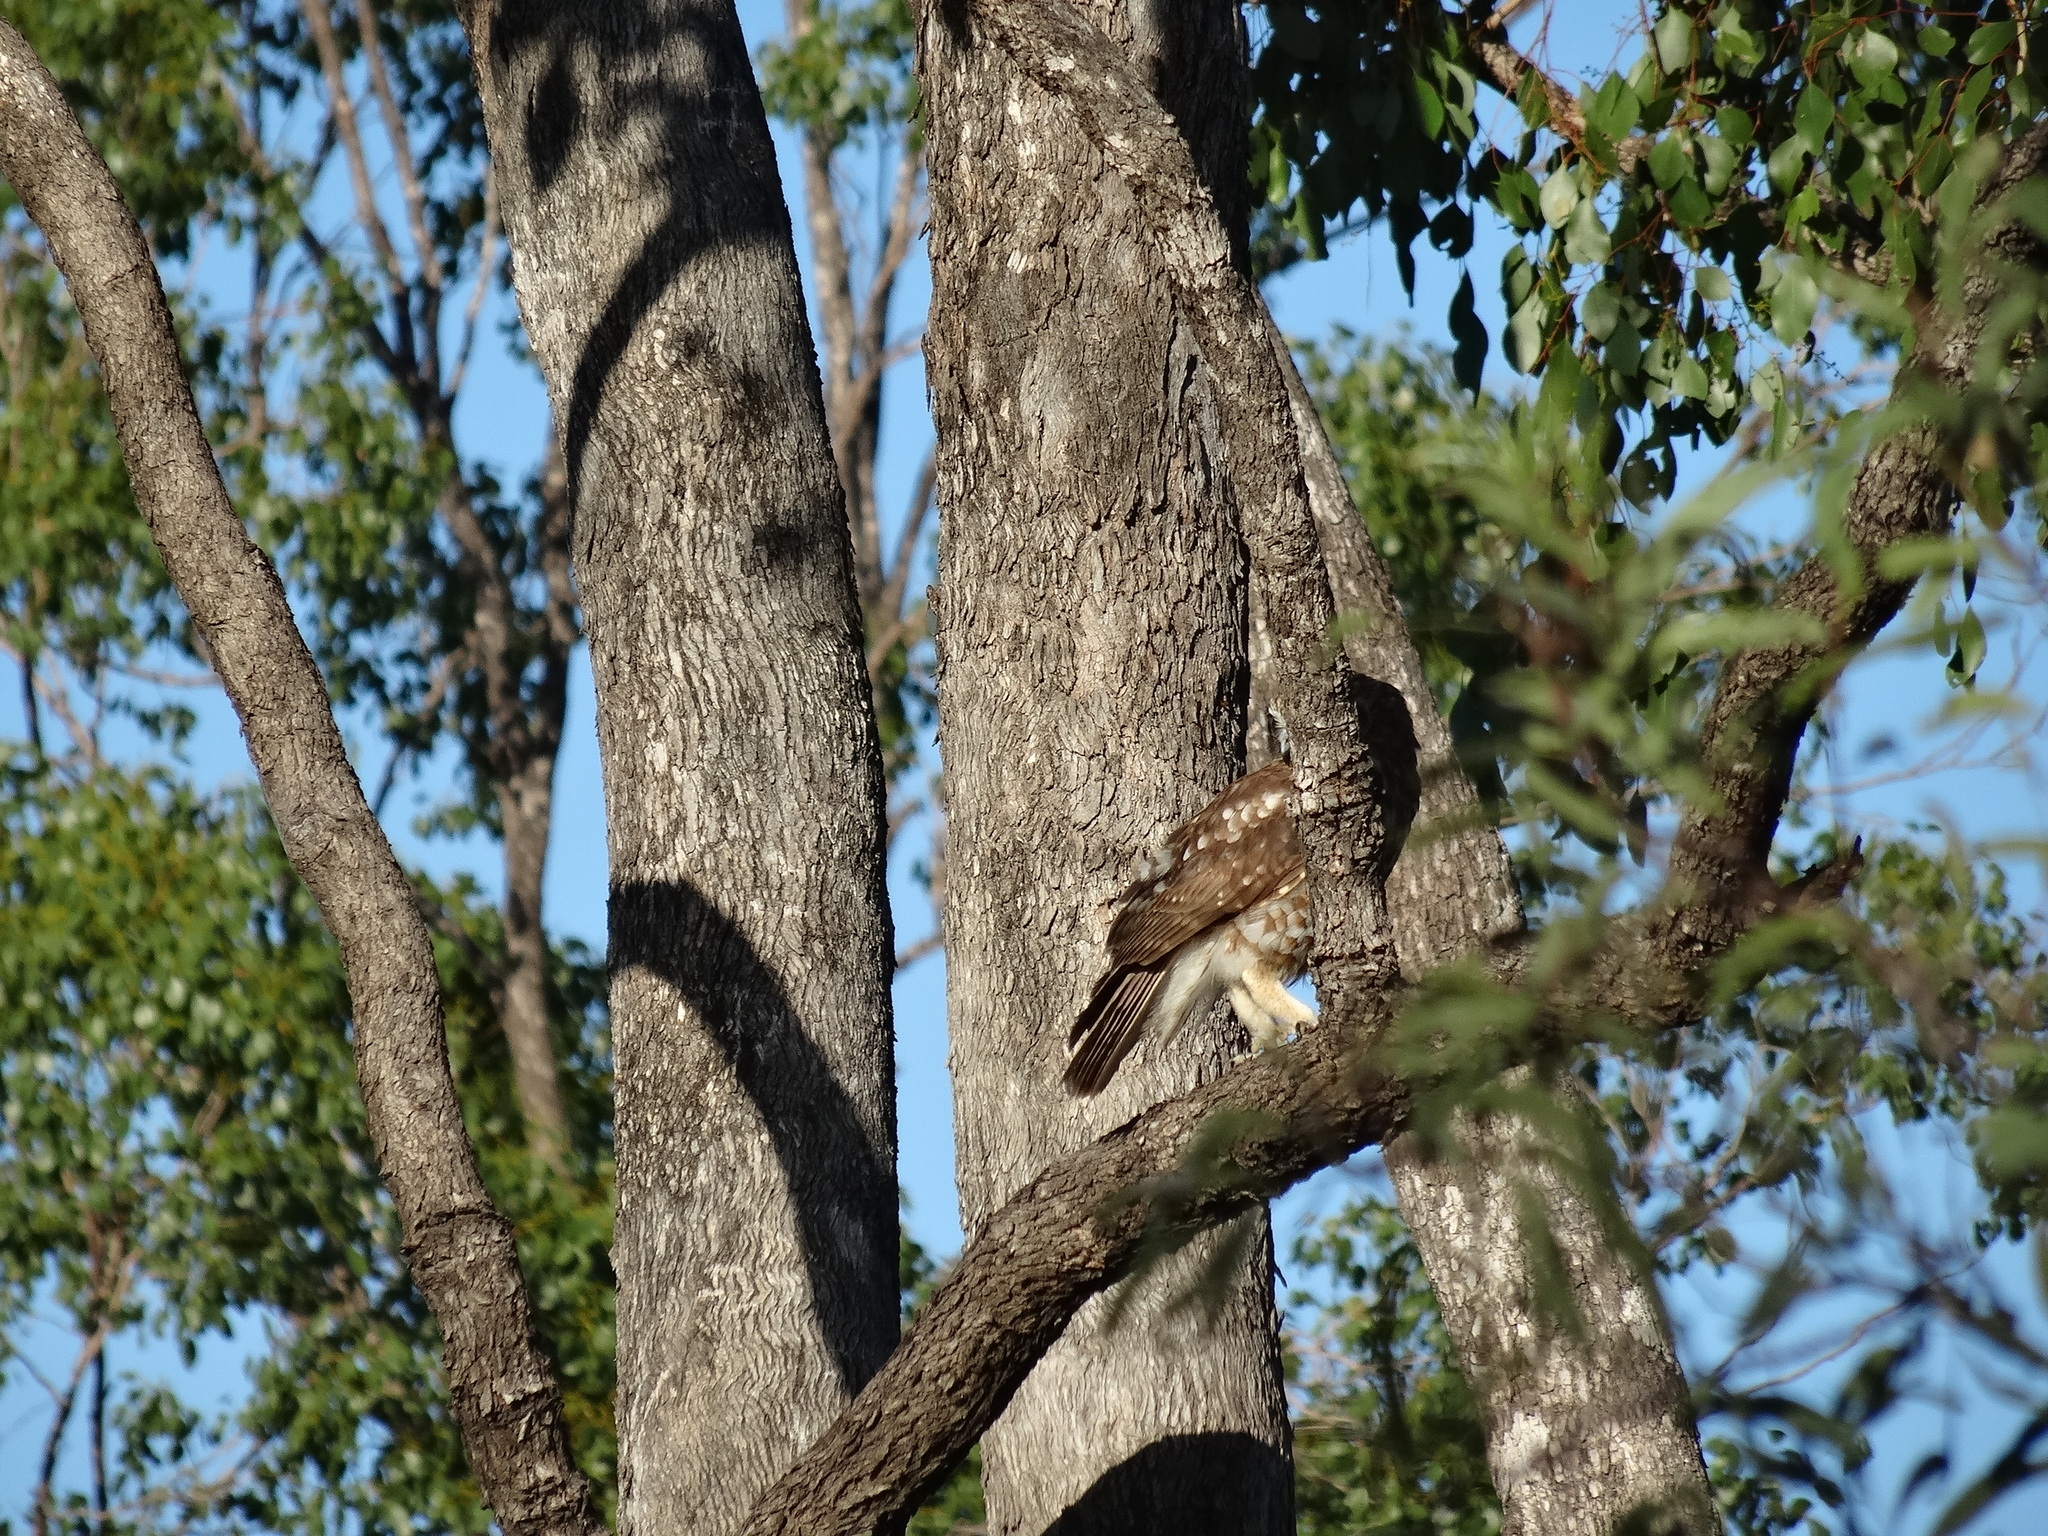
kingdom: Animalia
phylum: Chordata
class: Aves
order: Strigiformes
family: Strigidae
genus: Ninox
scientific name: Ninox boobook
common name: Southern boobook
